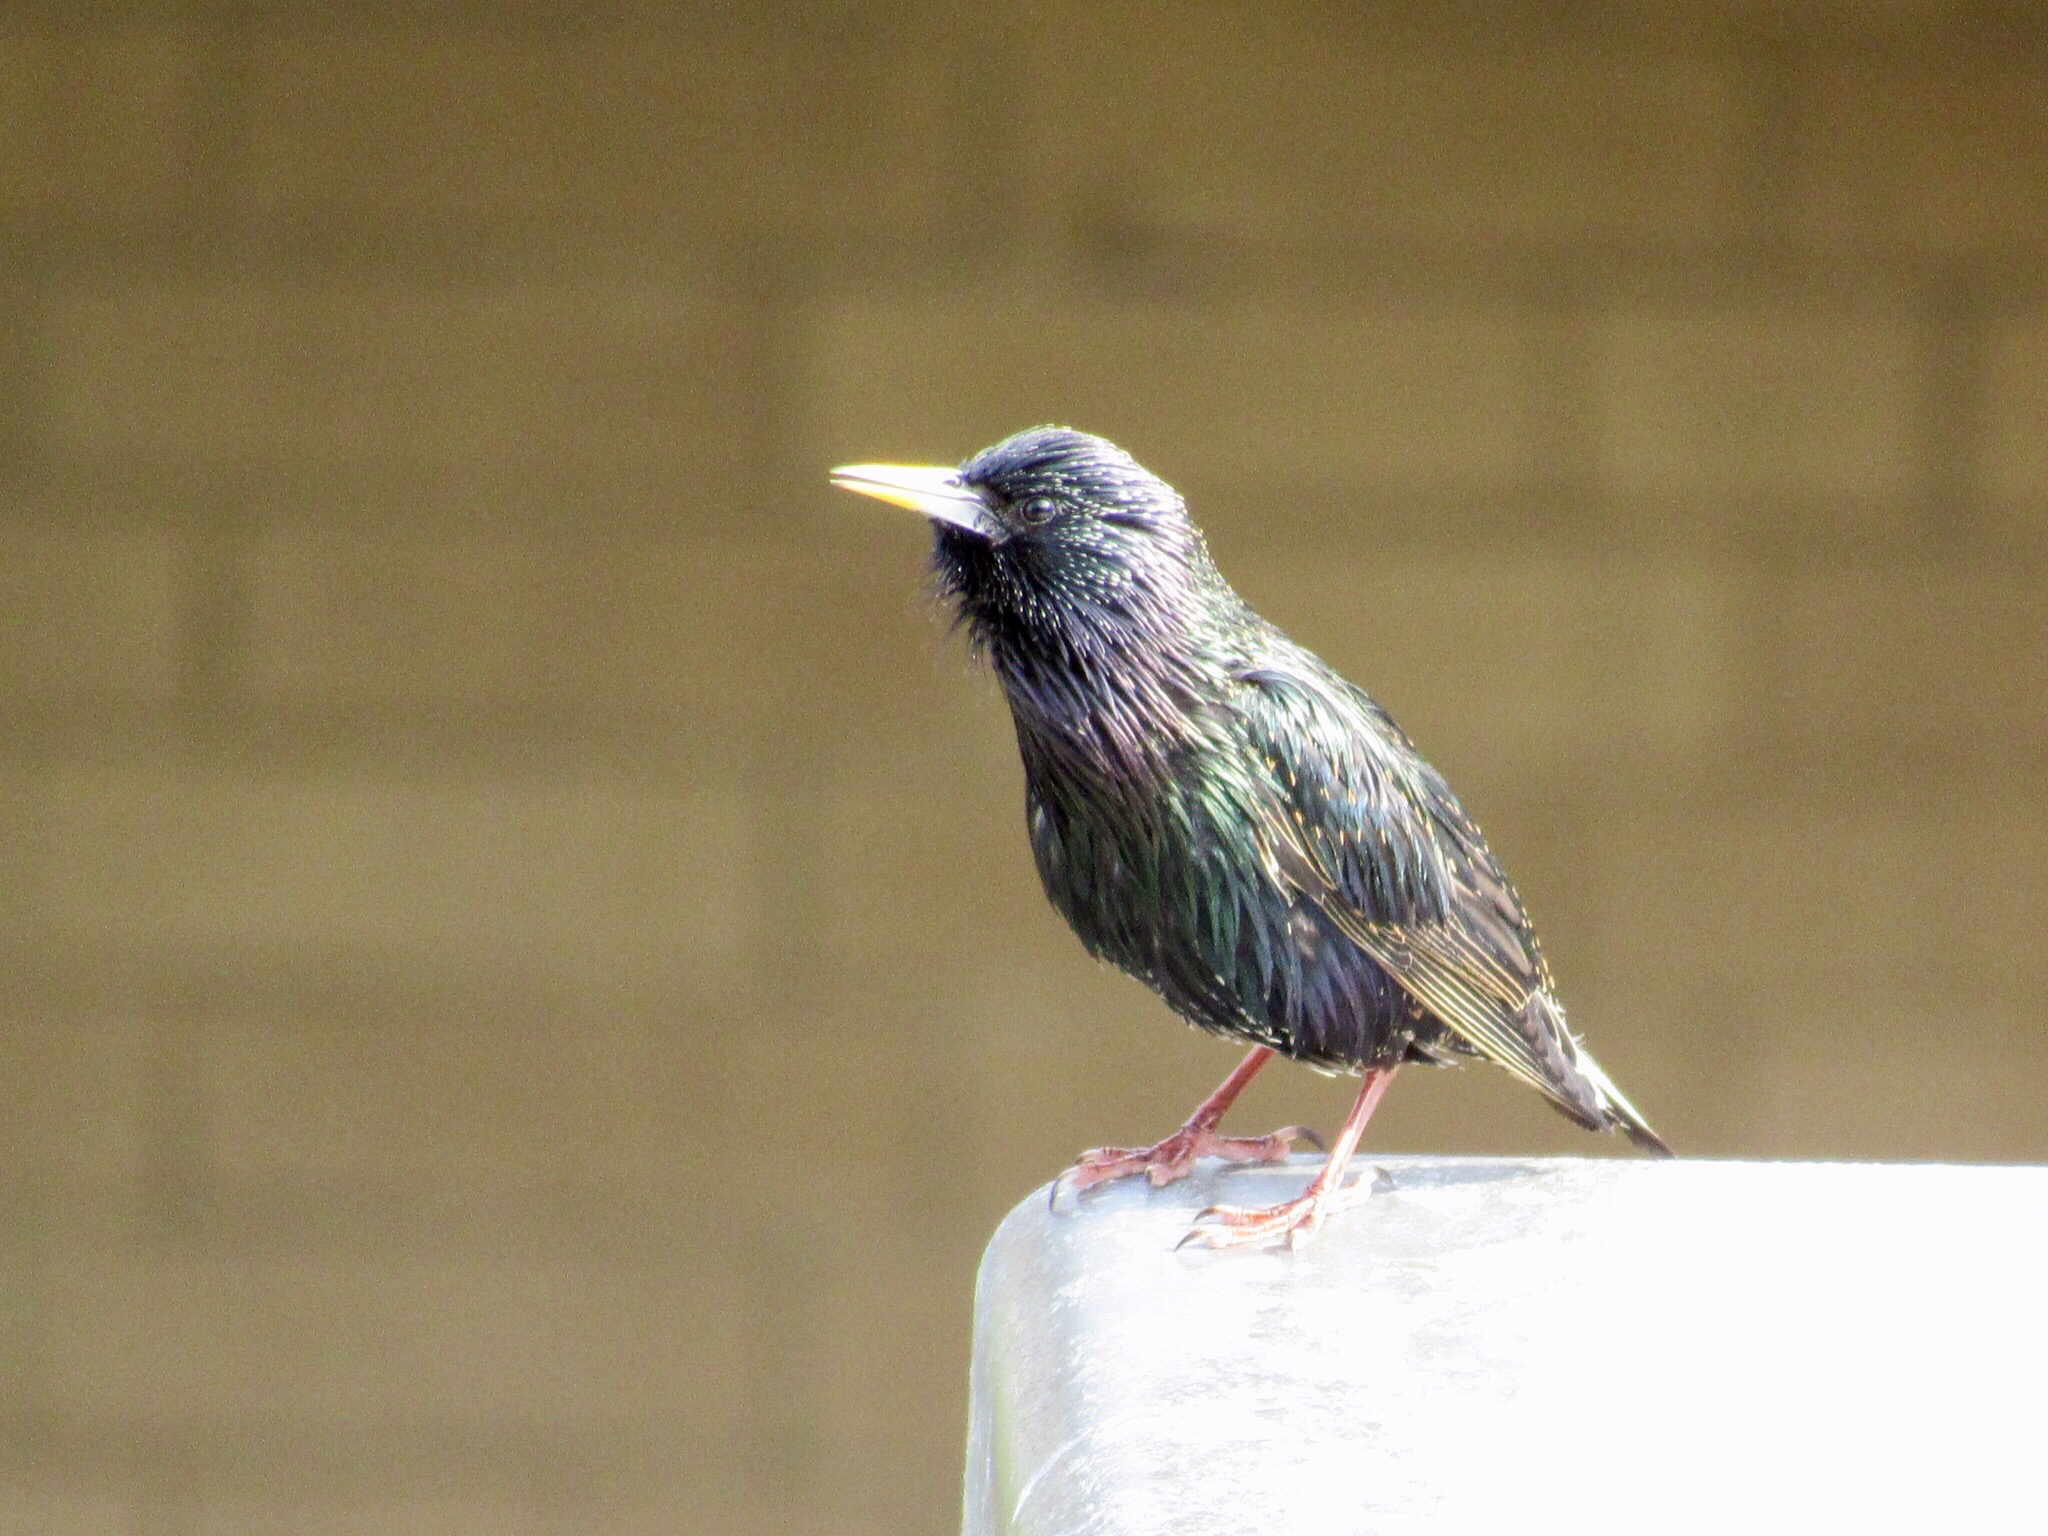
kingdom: Animalia
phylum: Chordata
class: Aves
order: Passeriformes
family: Sturnidae
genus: Sturnus
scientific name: Sturnus vulgaris
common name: Common starling
